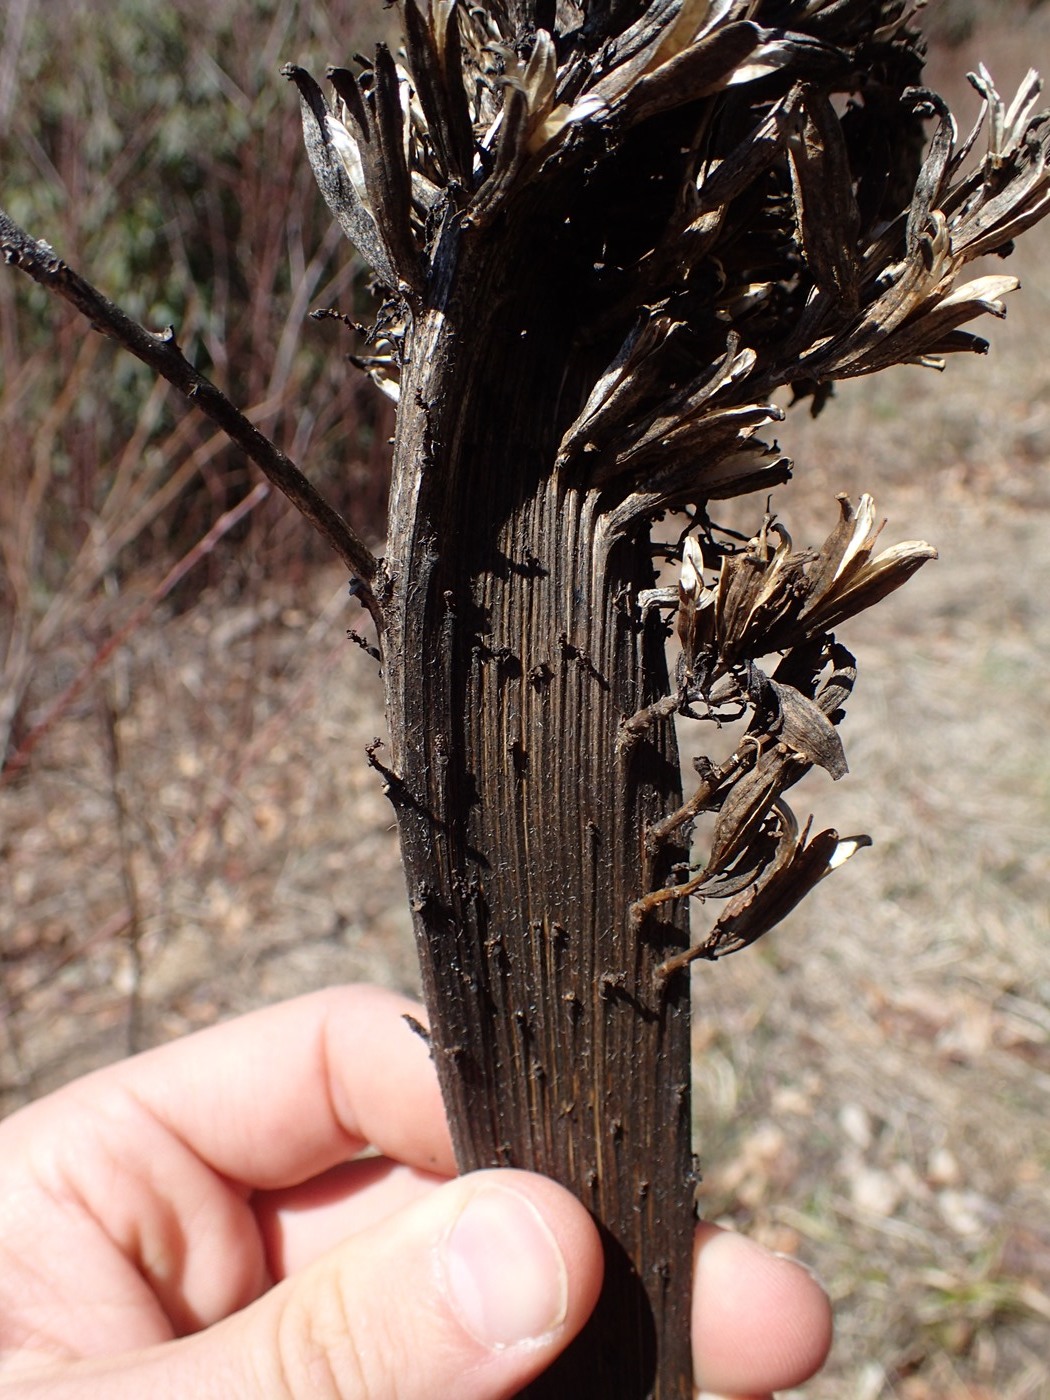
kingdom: Plantae
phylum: Tracheophyta
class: Magnoliopsida
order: Myrtales
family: Onagraceae
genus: Oenothera
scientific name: Oenothera biennis
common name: Common evening-primrose
